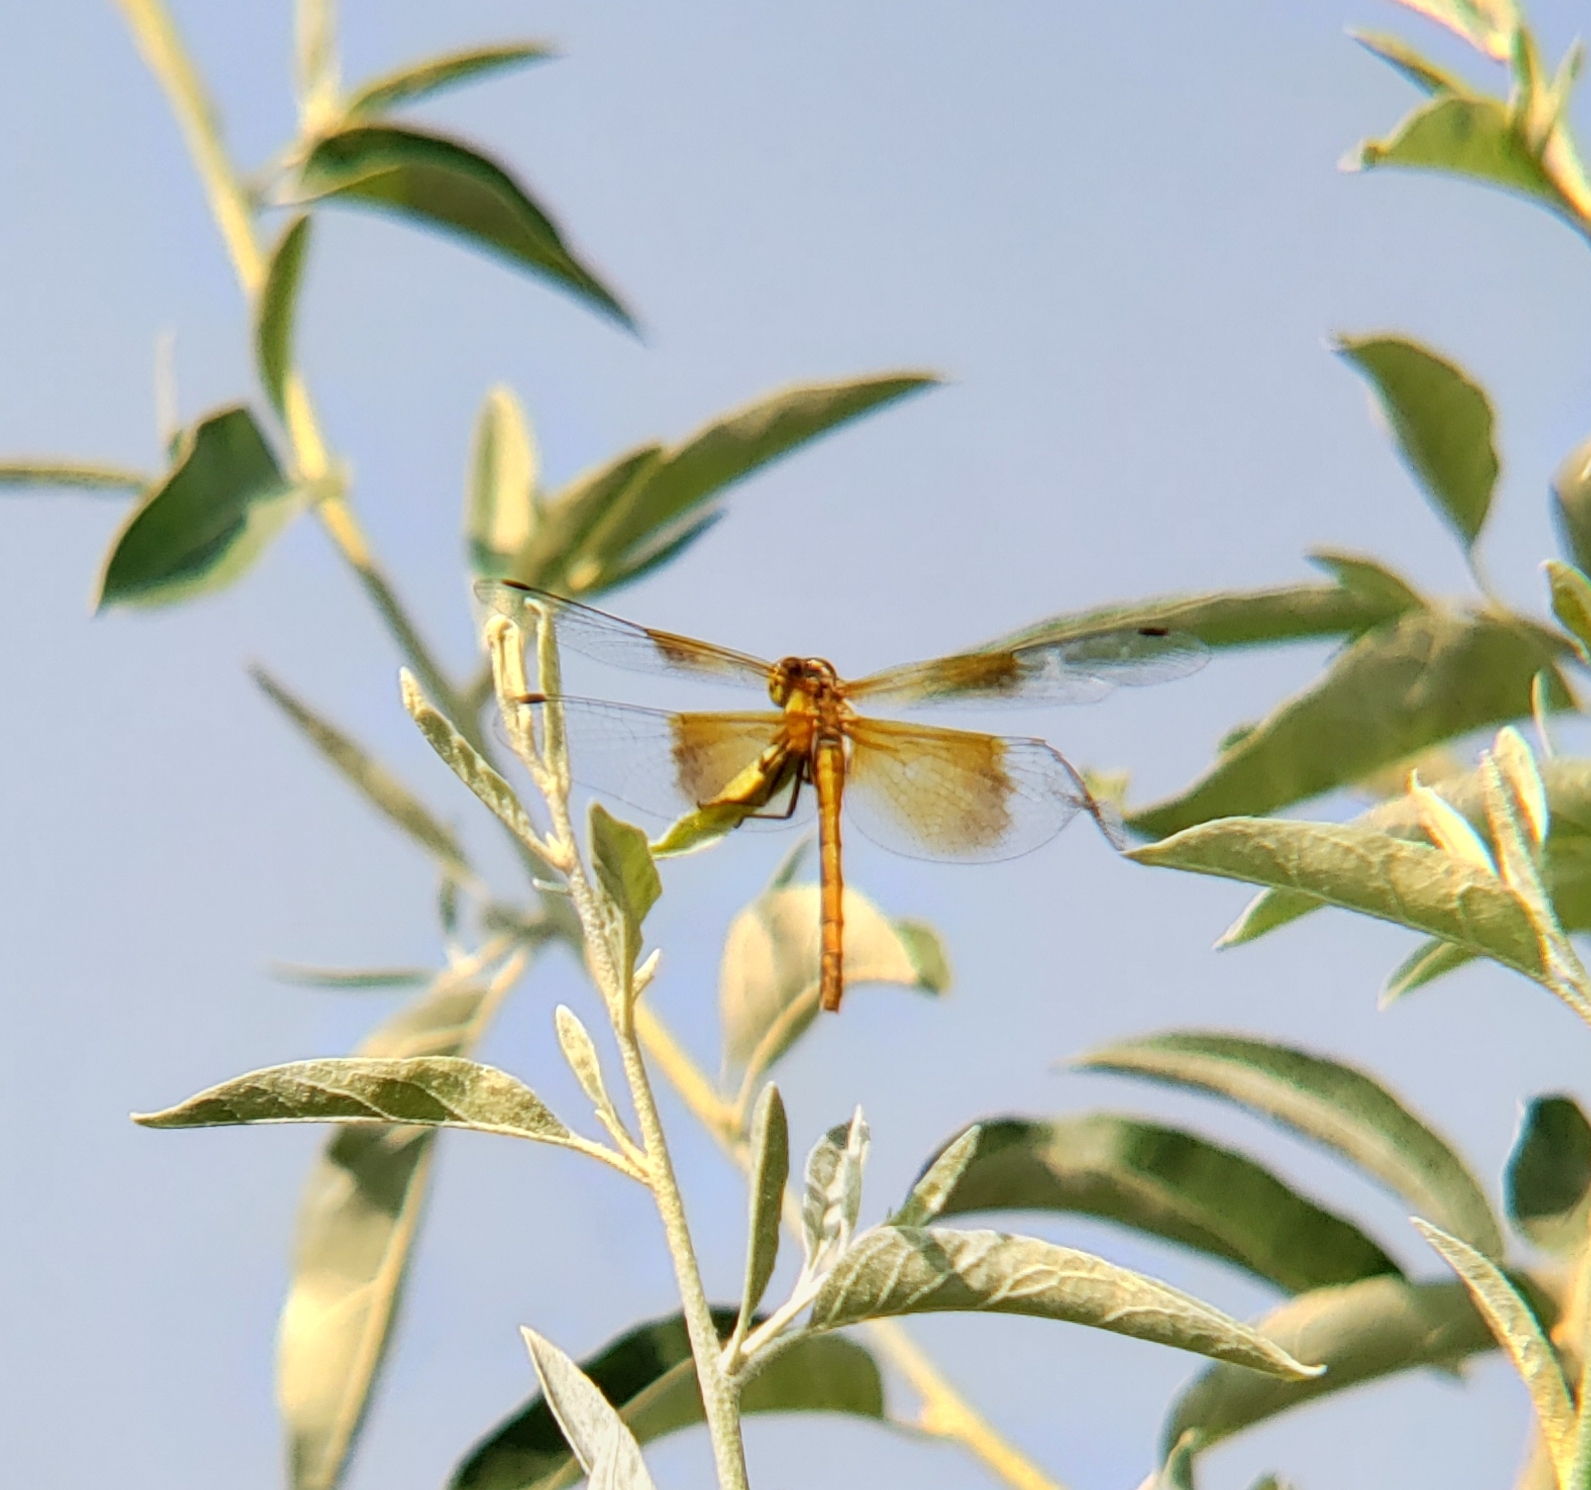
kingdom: Animalia
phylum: Arthropoda
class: Insecta
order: Odonata
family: Libellulidae
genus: Sympetrum
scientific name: Sympetrum semicinctum
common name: Band-winged meadowhawk
